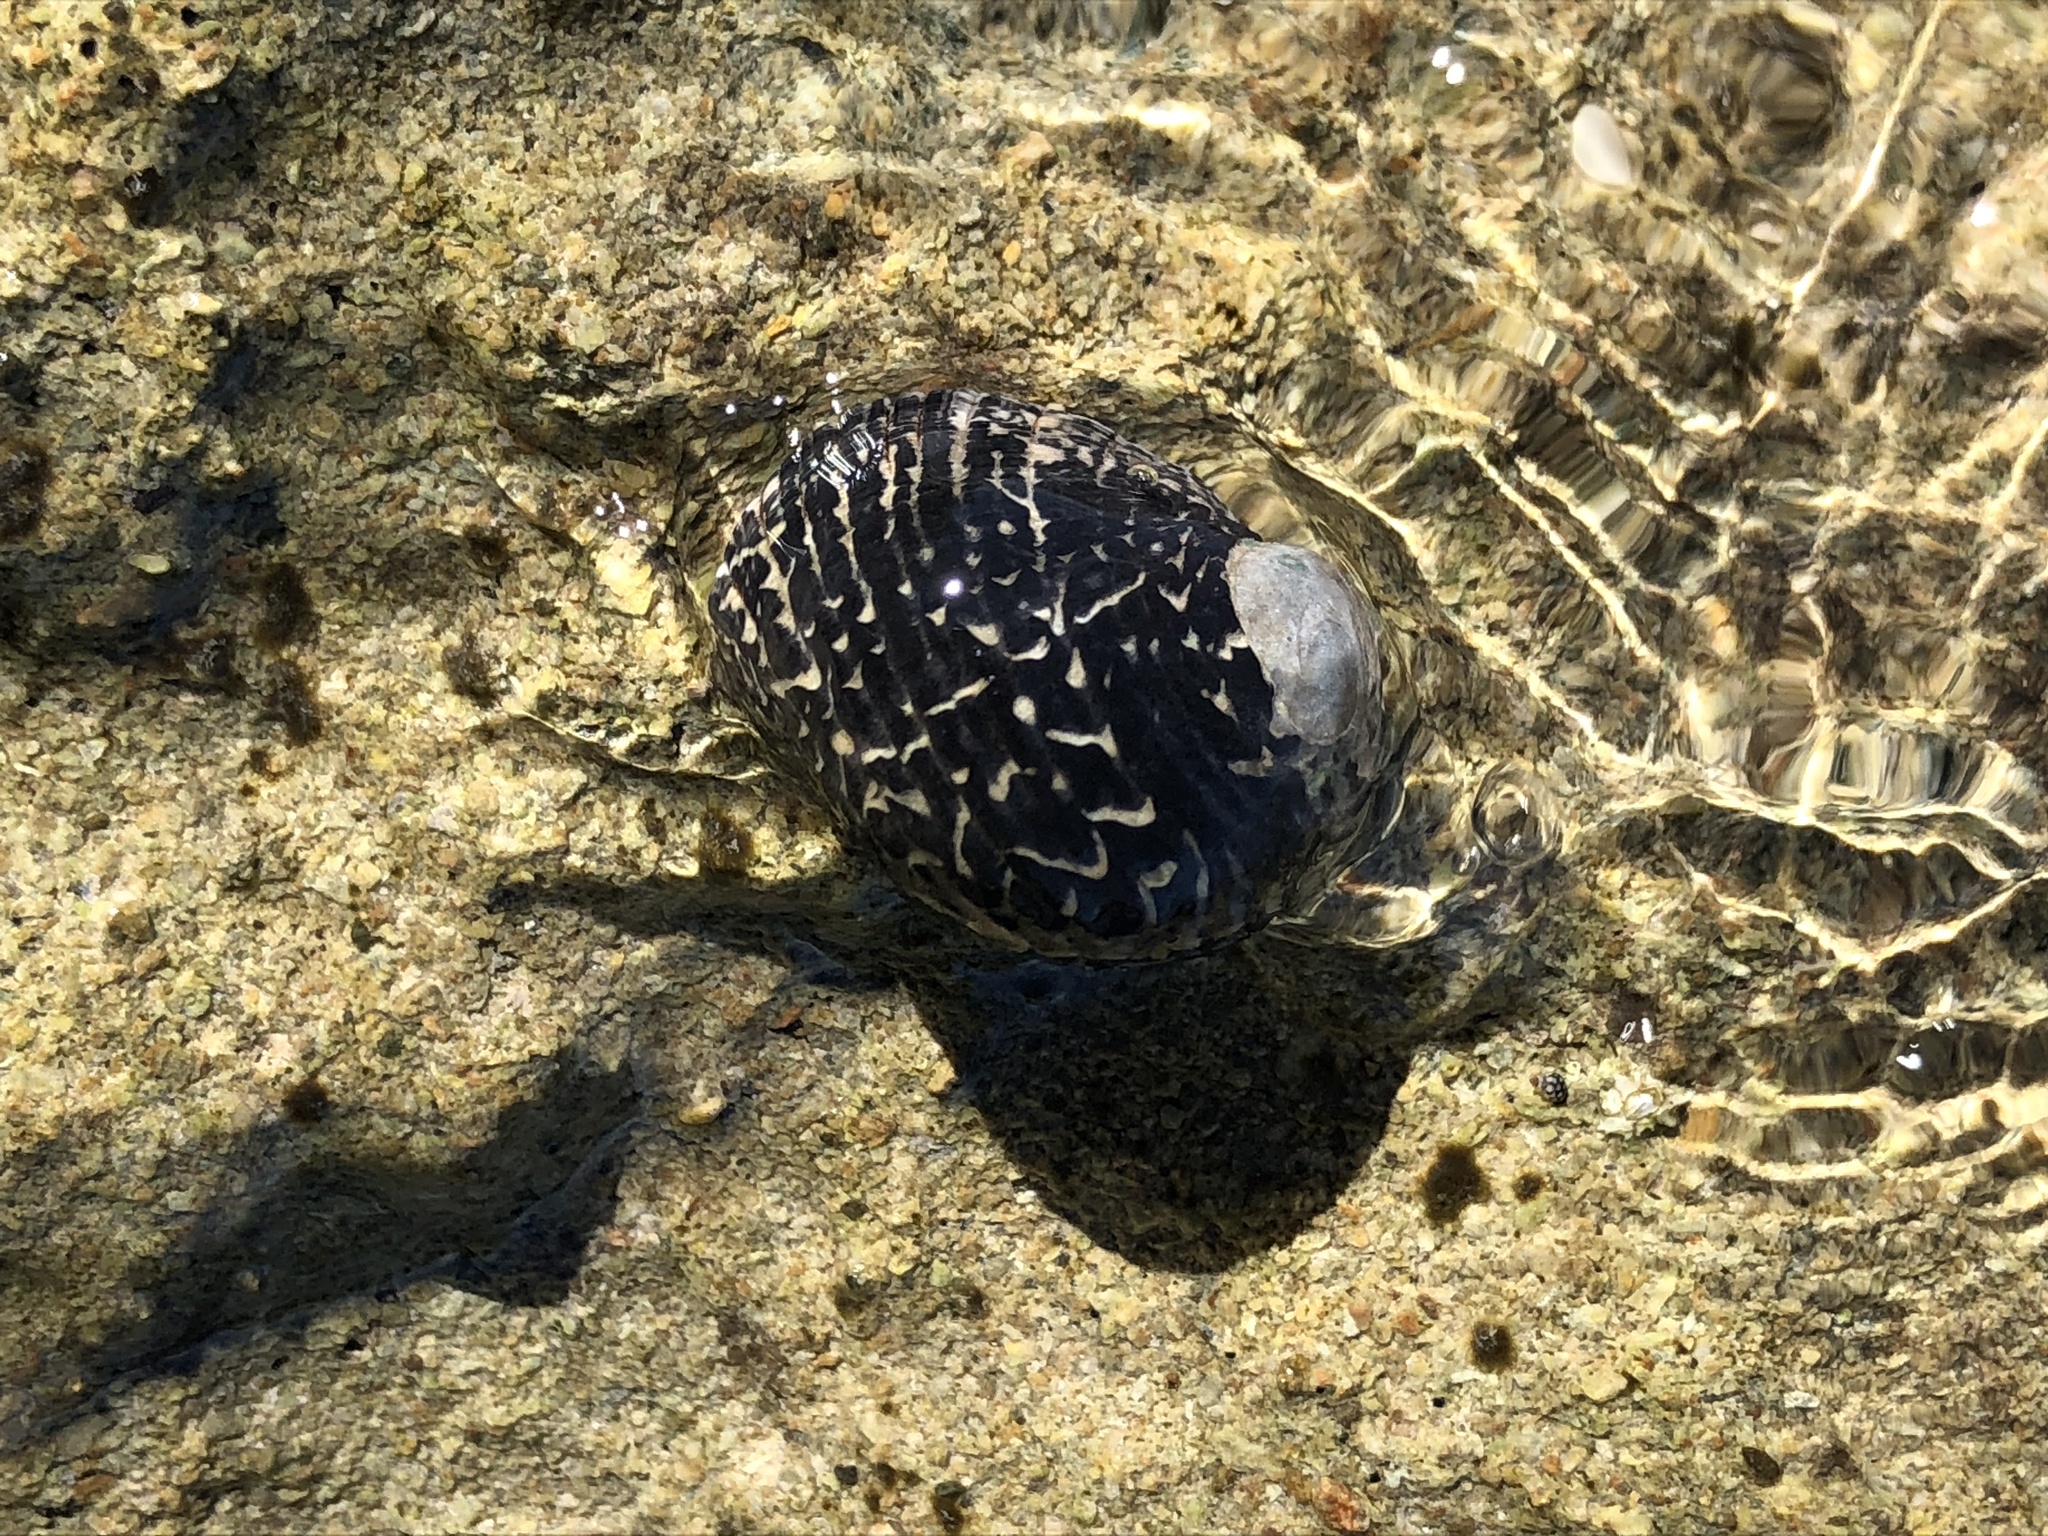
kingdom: Animalia
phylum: Mollusca
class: Gastropoda
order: Cycloneritida
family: Neritidae
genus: Nerita
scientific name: Nerita tessellata
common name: Checkered nerite
